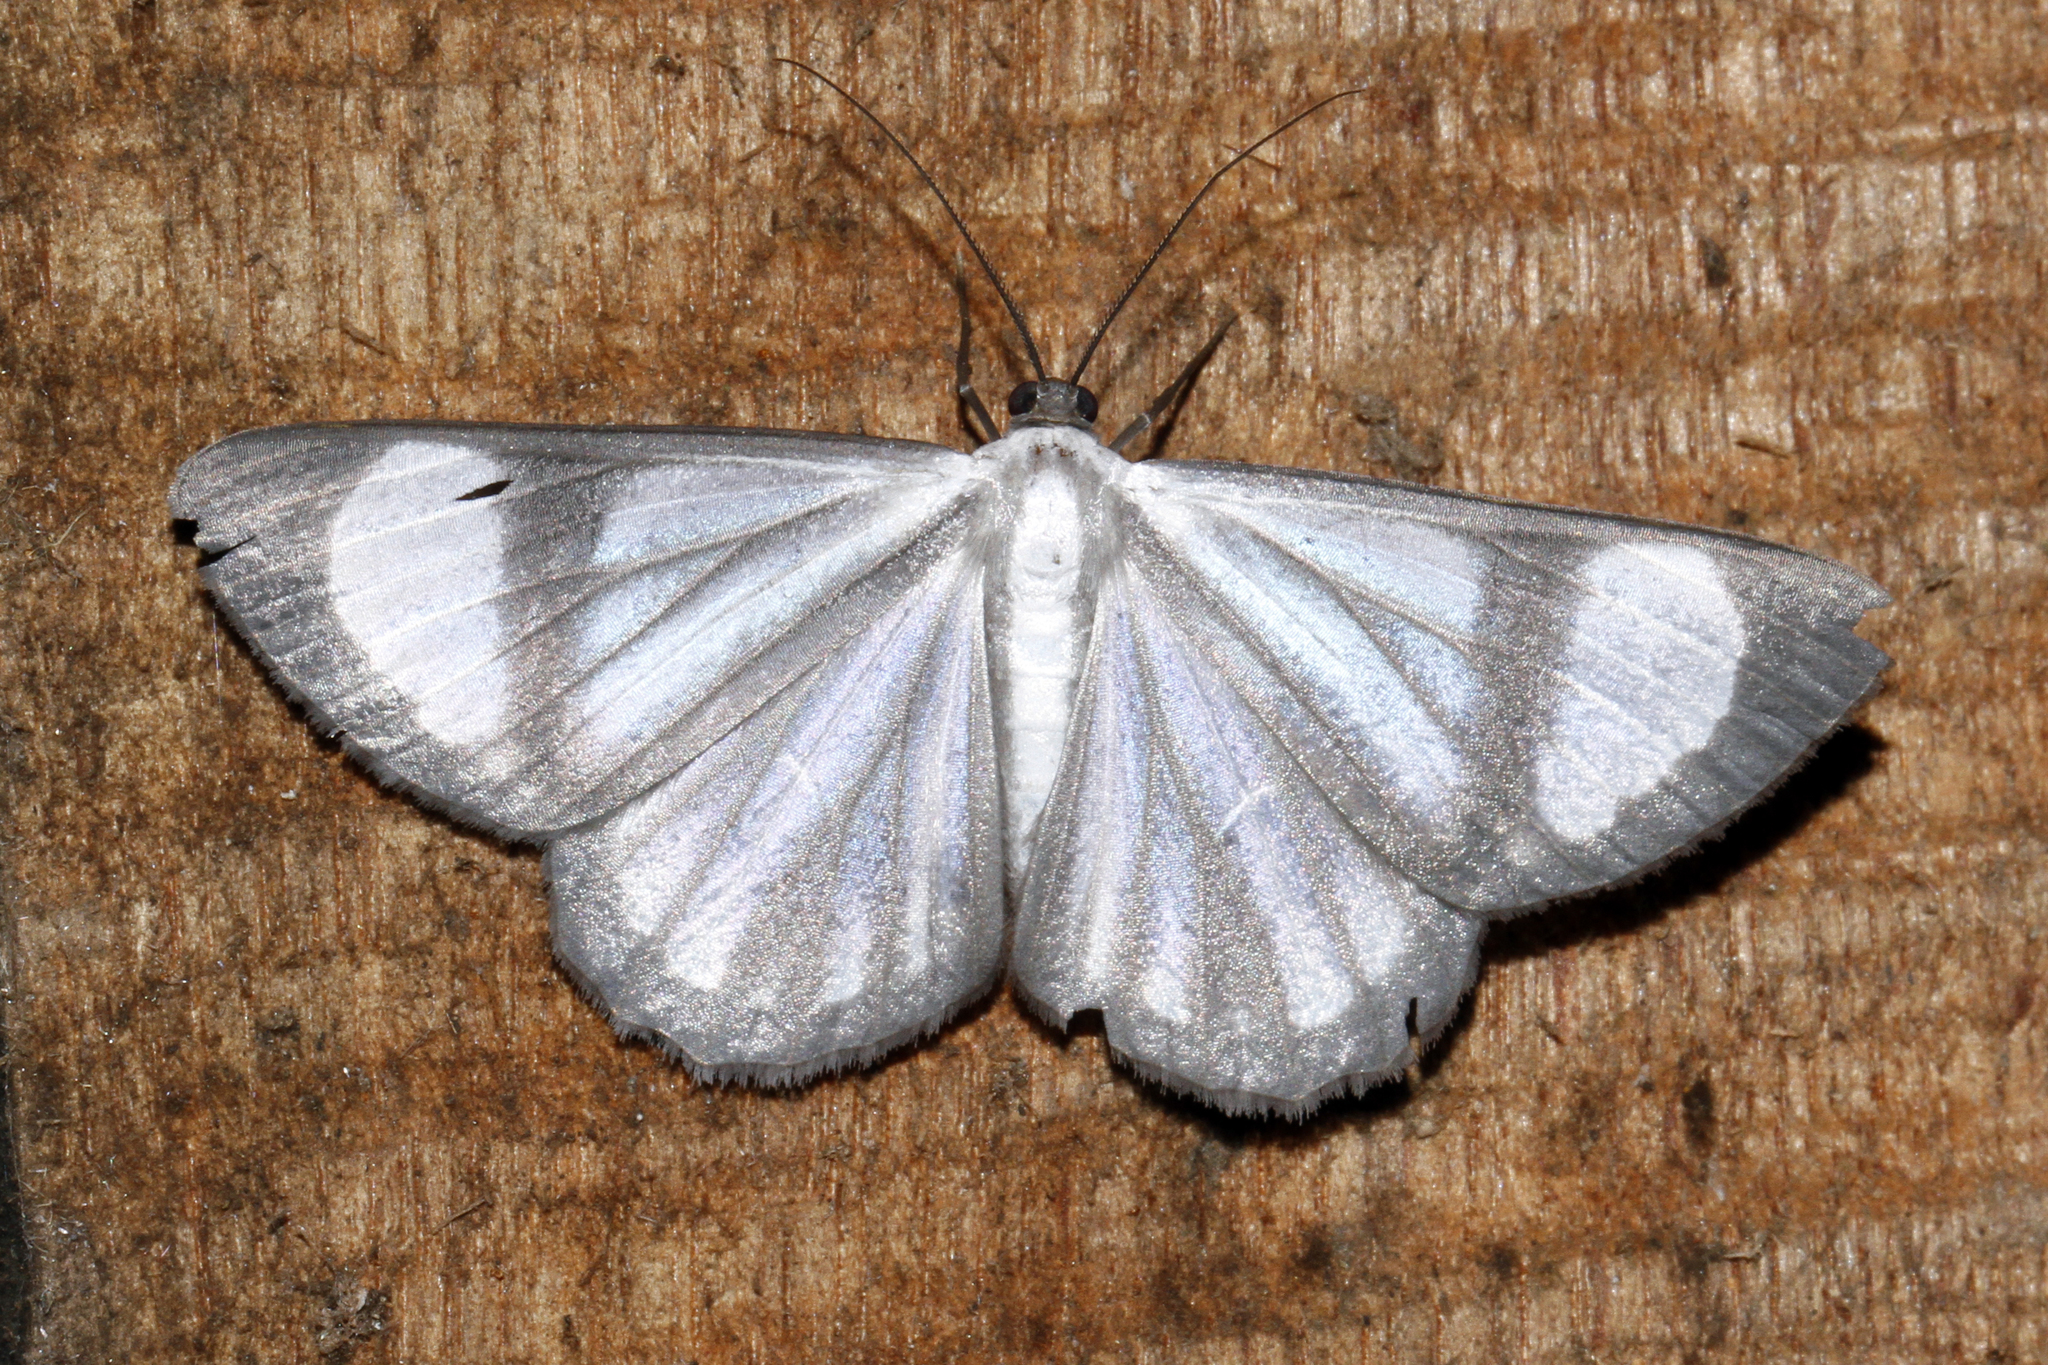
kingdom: Animalia
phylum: Arthropoda
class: Insecta
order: Lepidoptera
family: Geometridae
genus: Perigramma
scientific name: Perigramma vicina
